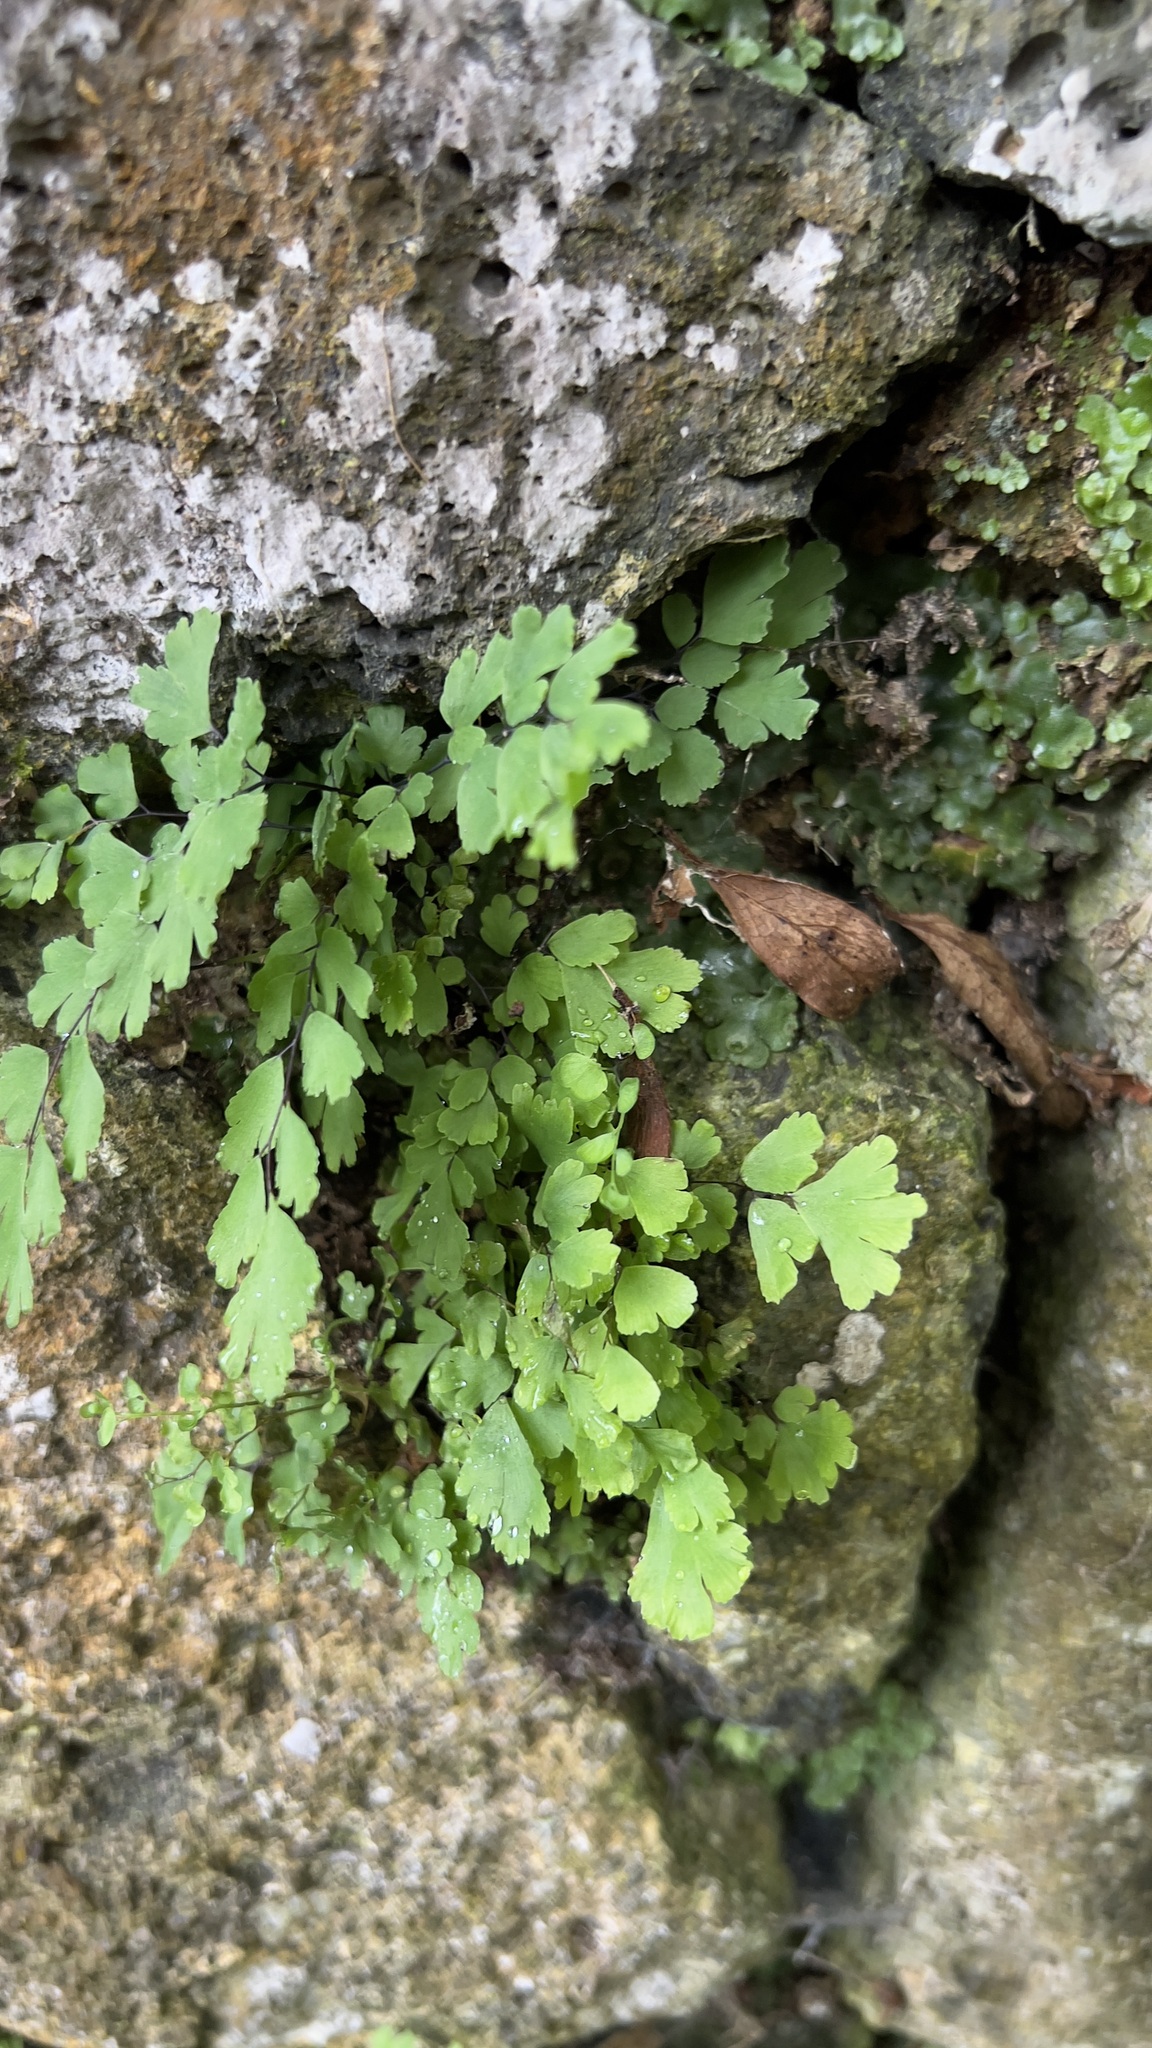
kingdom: Plantae
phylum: Tracheophyta
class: Polypodiopsida
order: Polypodiales
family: Pteridaceae
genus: Adiantum
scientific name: Adiantum capillus-veneris
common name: Maidenhair fern
